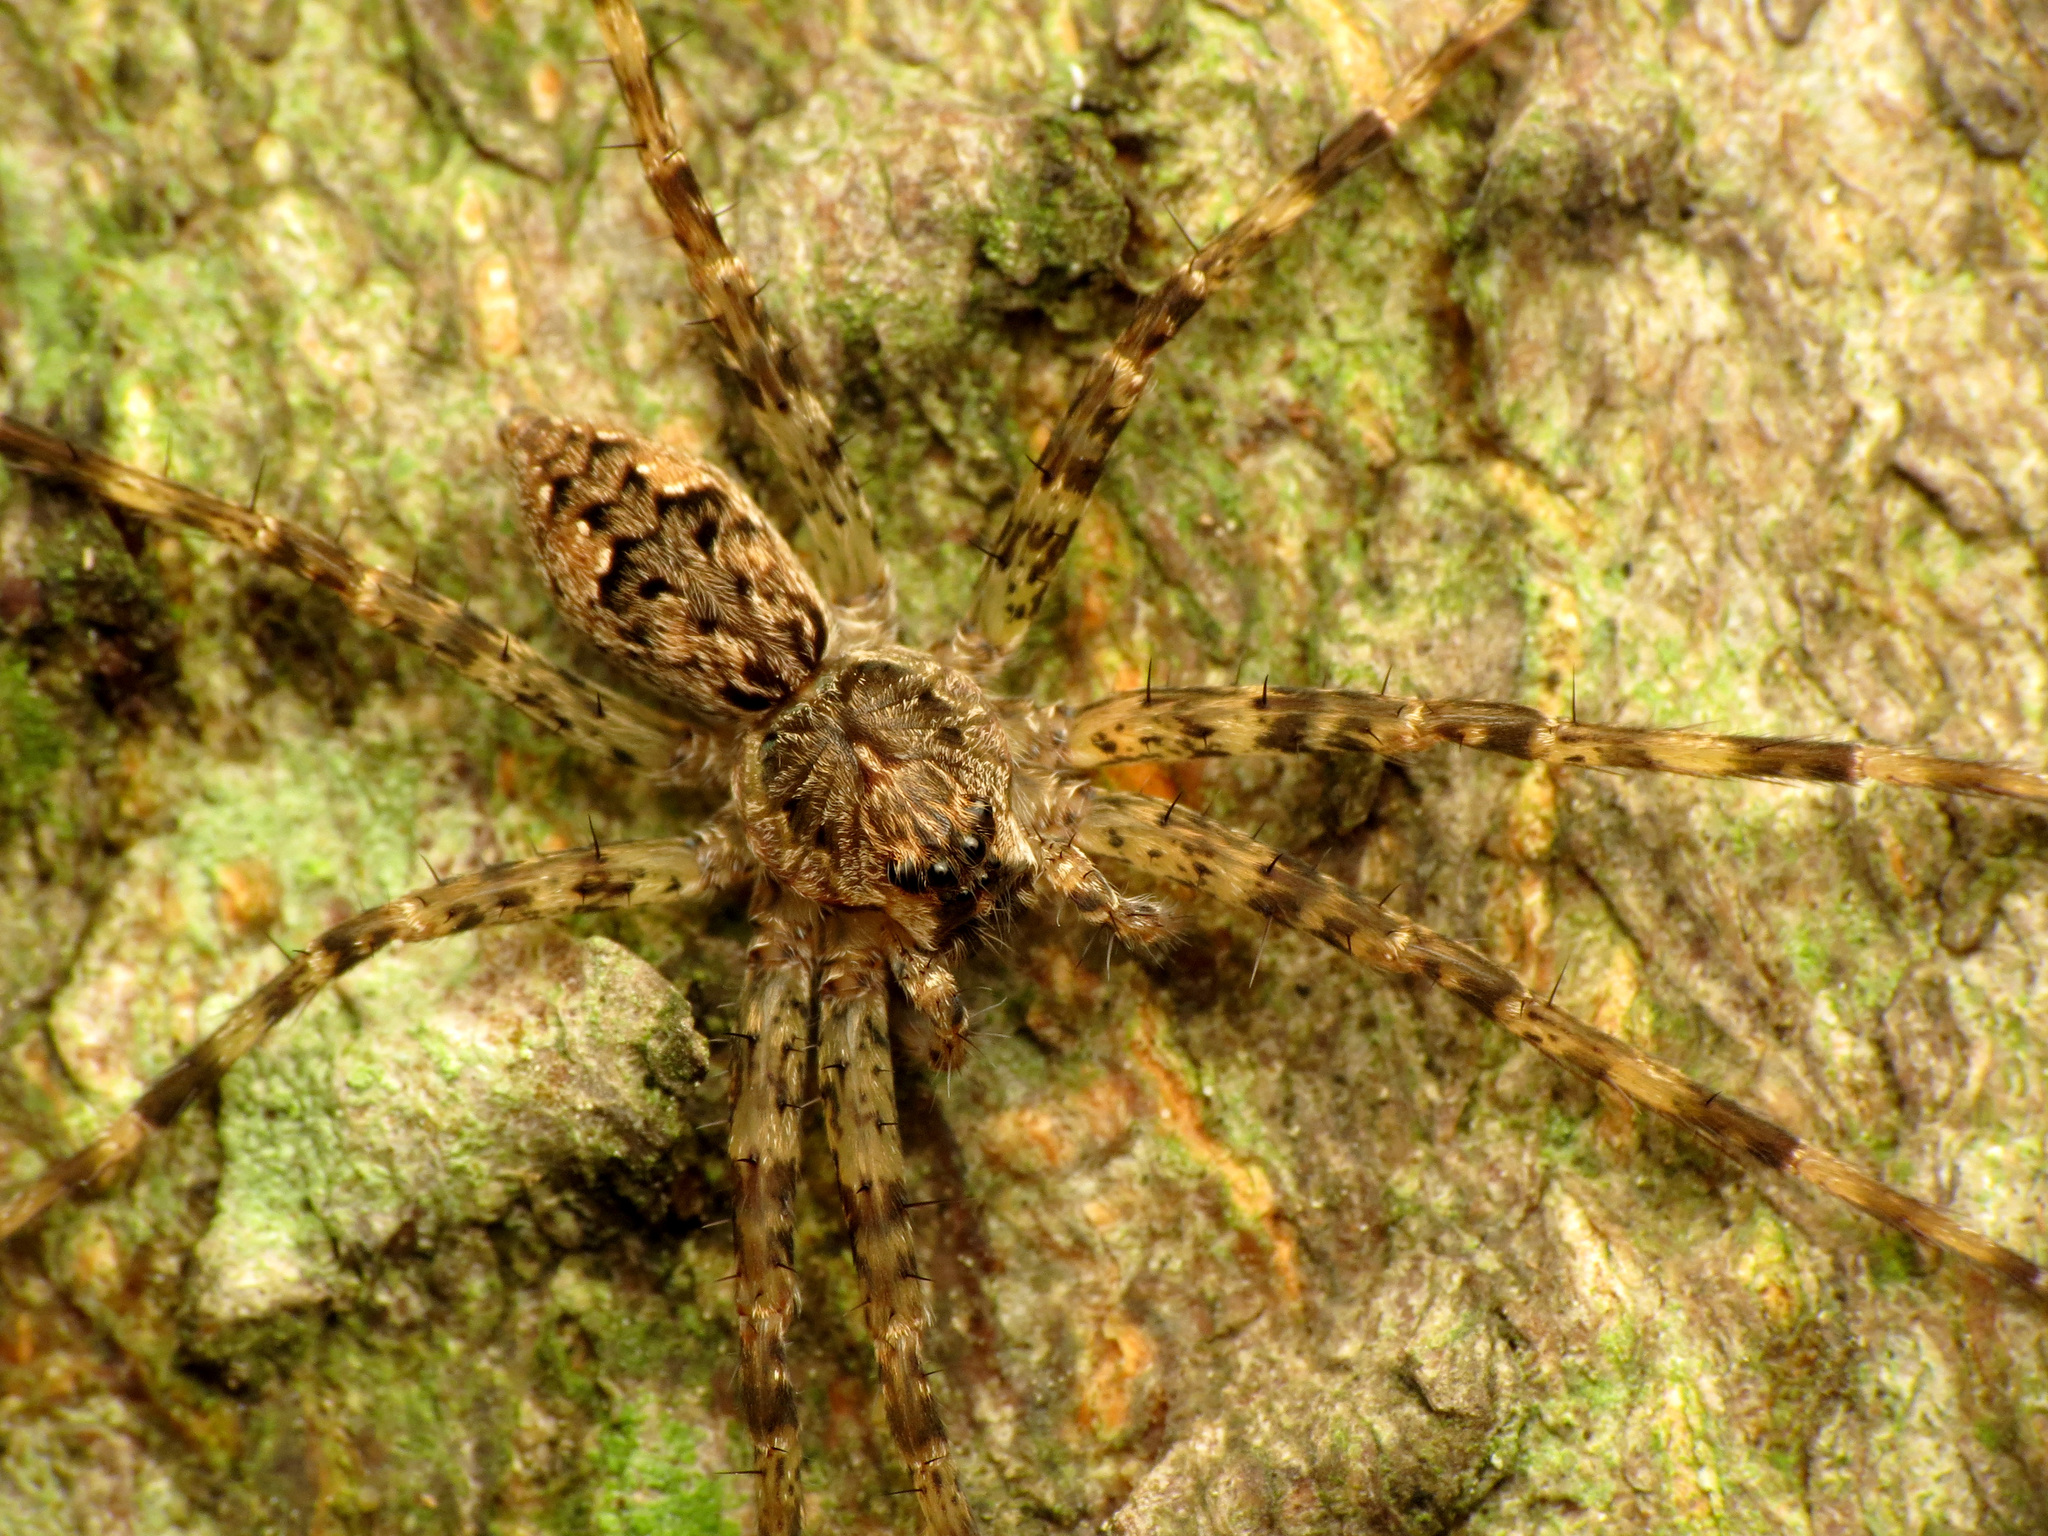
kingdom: Animalia
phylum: Arthropoda
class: Arachnida
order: Araneae
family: Pisauridae
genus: Dolomedes
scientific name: Dolomedes tenebrosus
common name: Dark fishing spider
